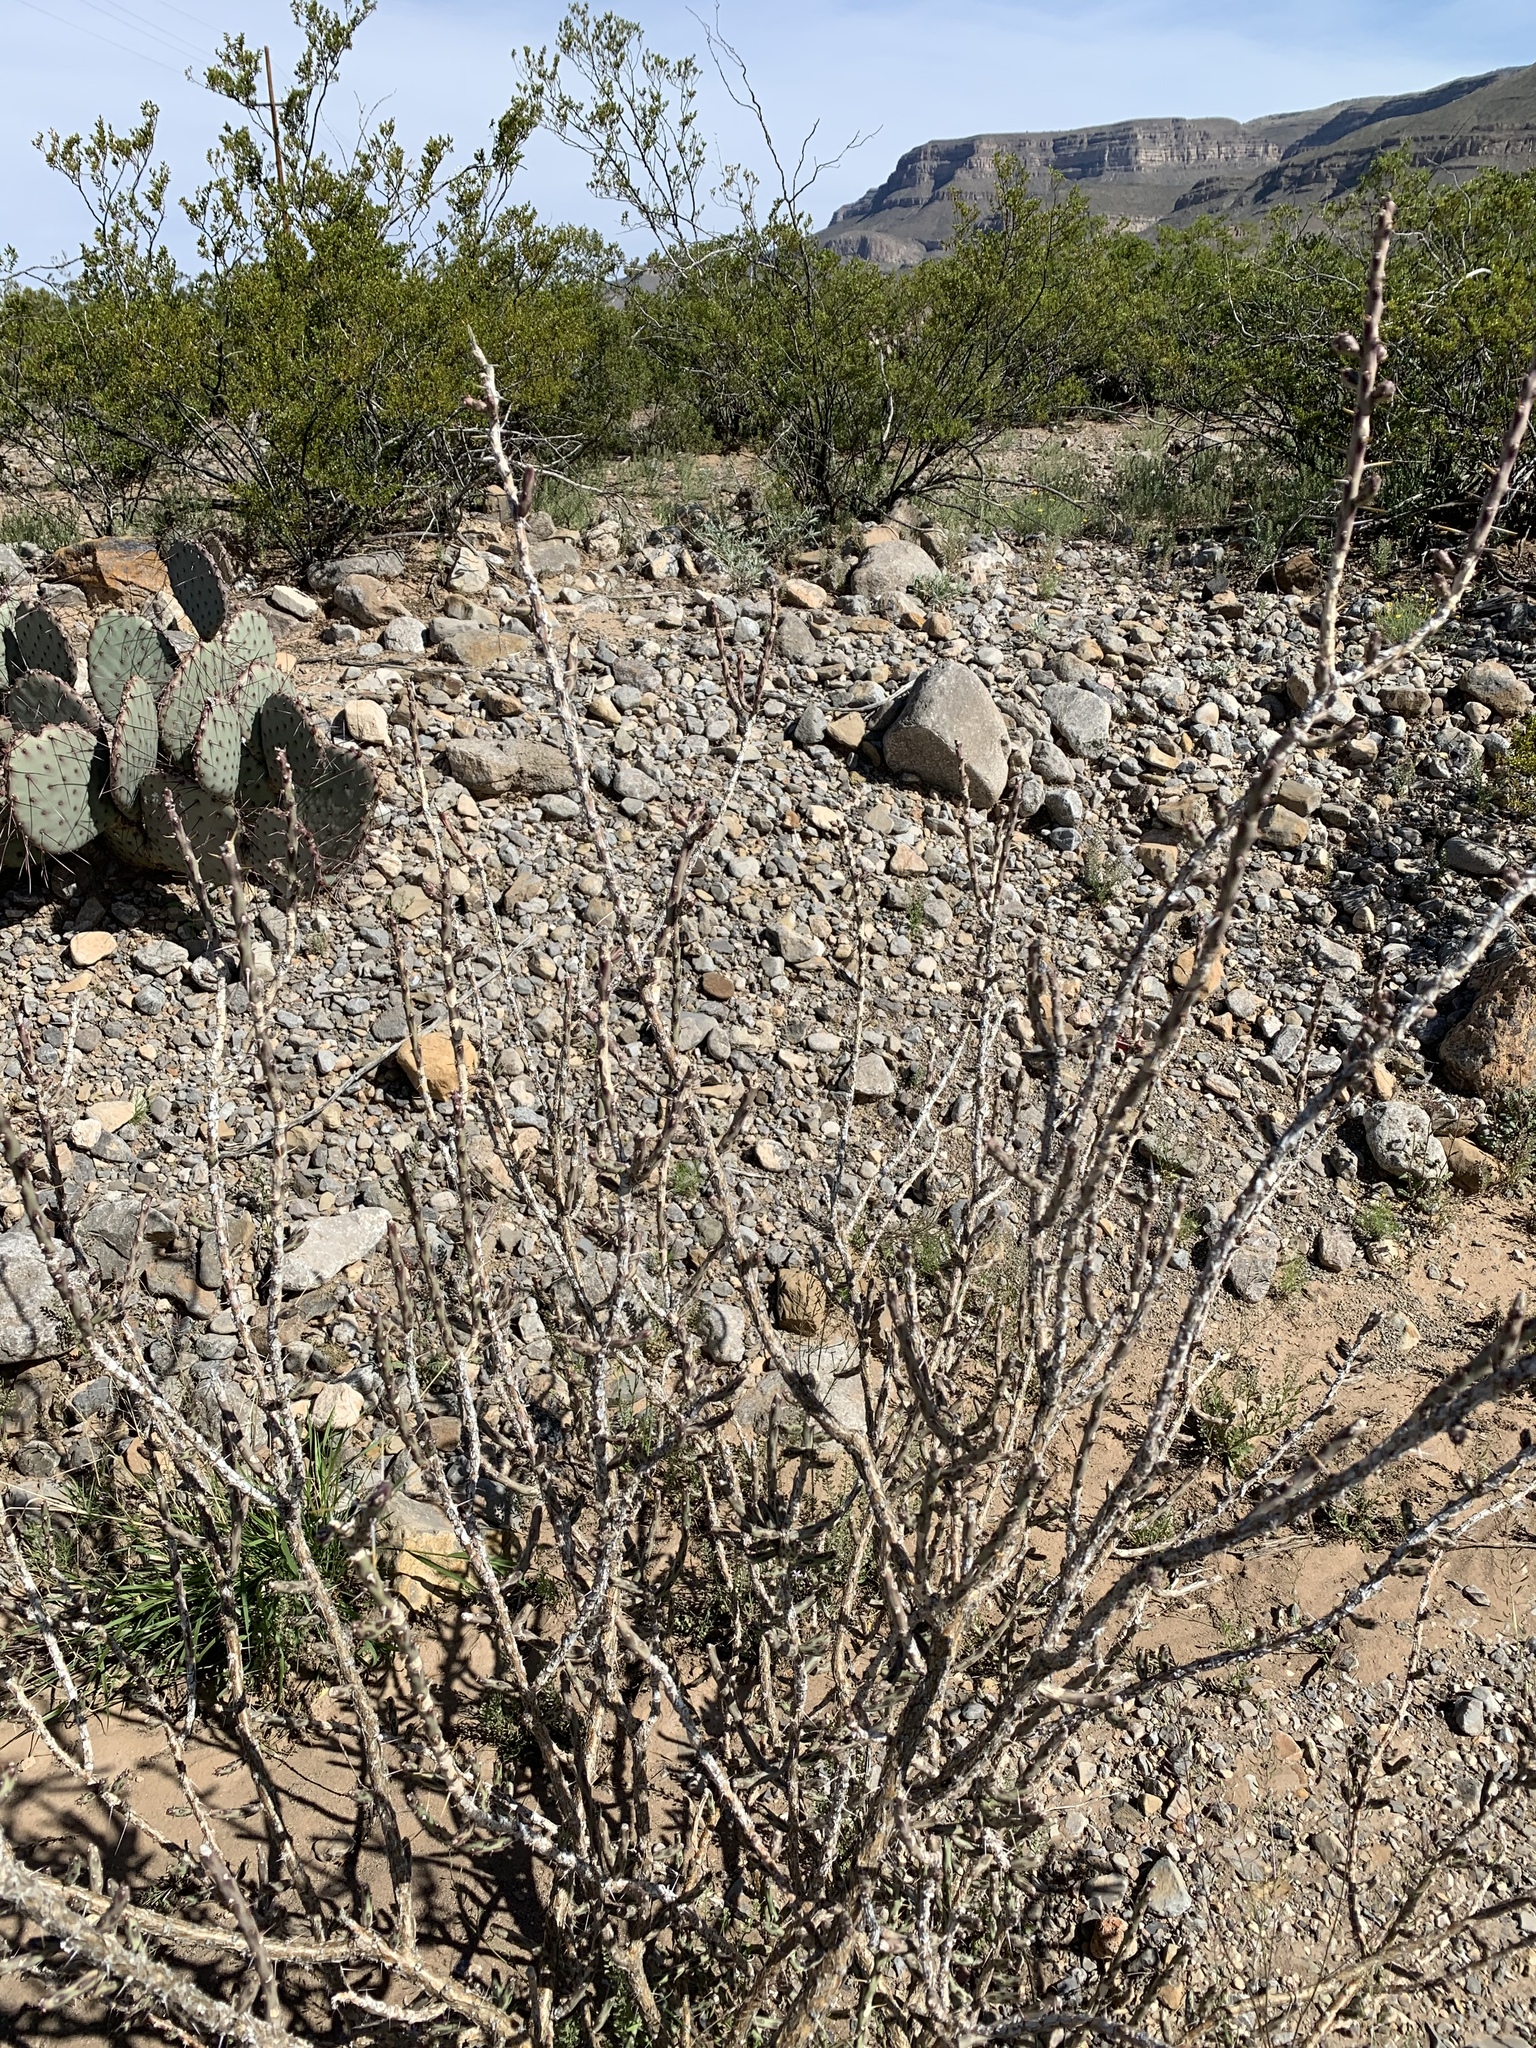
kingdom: Plantae
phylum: Tracheophyta
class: Magnoliopsida
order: Caryophyllales
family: Cactaceae
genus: Cylindropuntia
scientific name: Cylindropuntia leptocaulis
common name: Christmas cactus
